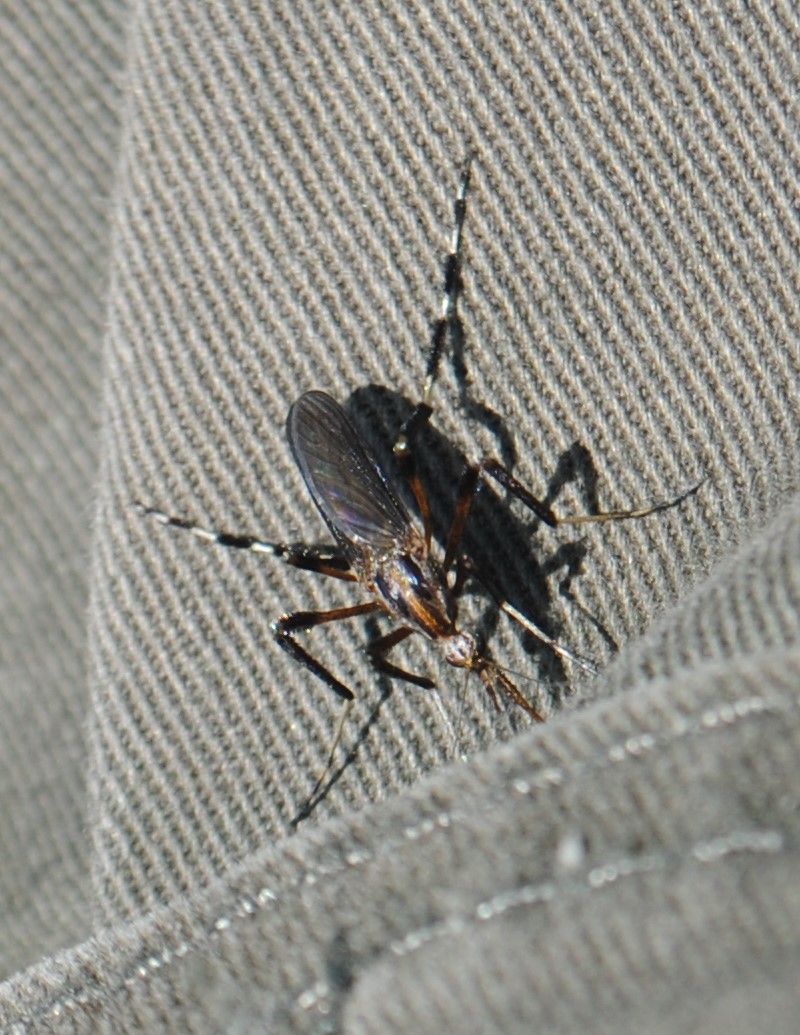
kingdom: Animalia
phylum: Arthropoda
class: Insecta
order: Diptera
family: Culicidae
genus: Psorophora
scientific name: Psorophora ciliata
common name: Gallinipper
